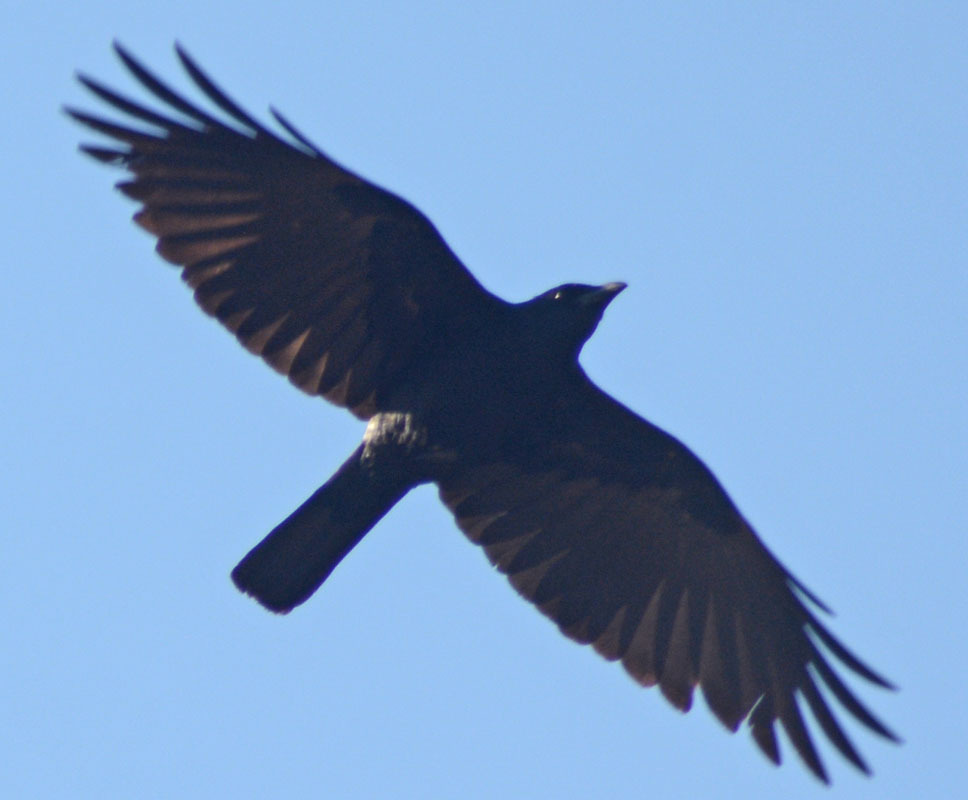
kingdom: Animalia
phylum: Chordata
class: Aves
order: Passeriformes
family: Corvidae
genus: Corvus
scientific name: Corvus sinaloae
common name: Sinaloa crow
